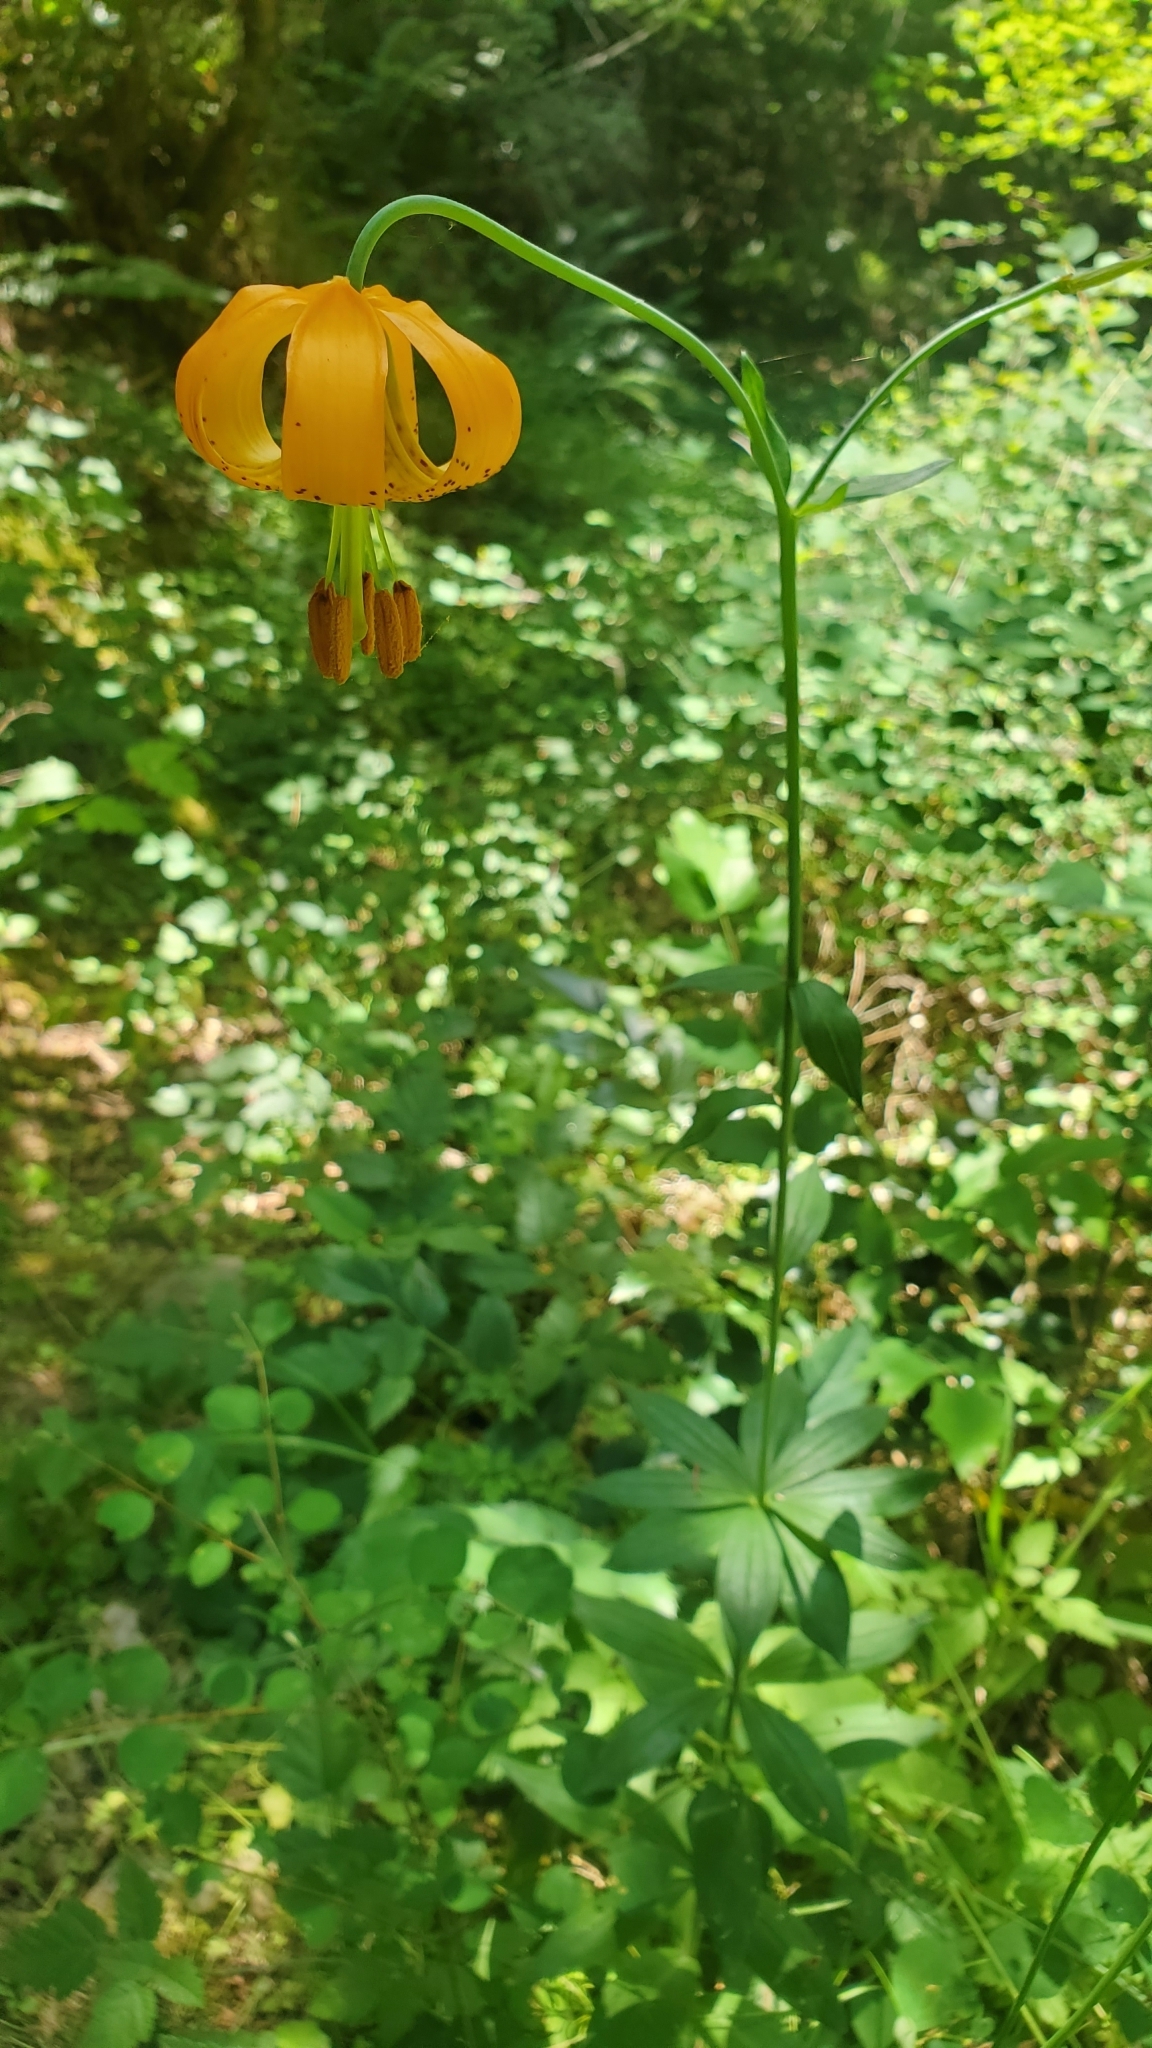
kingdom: Plantae
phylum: Tracheophyta
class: Liliopsida
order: Liliales
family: Liliaceae
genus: Lilium
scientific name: Lilium columbianum
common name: Columbia lily
